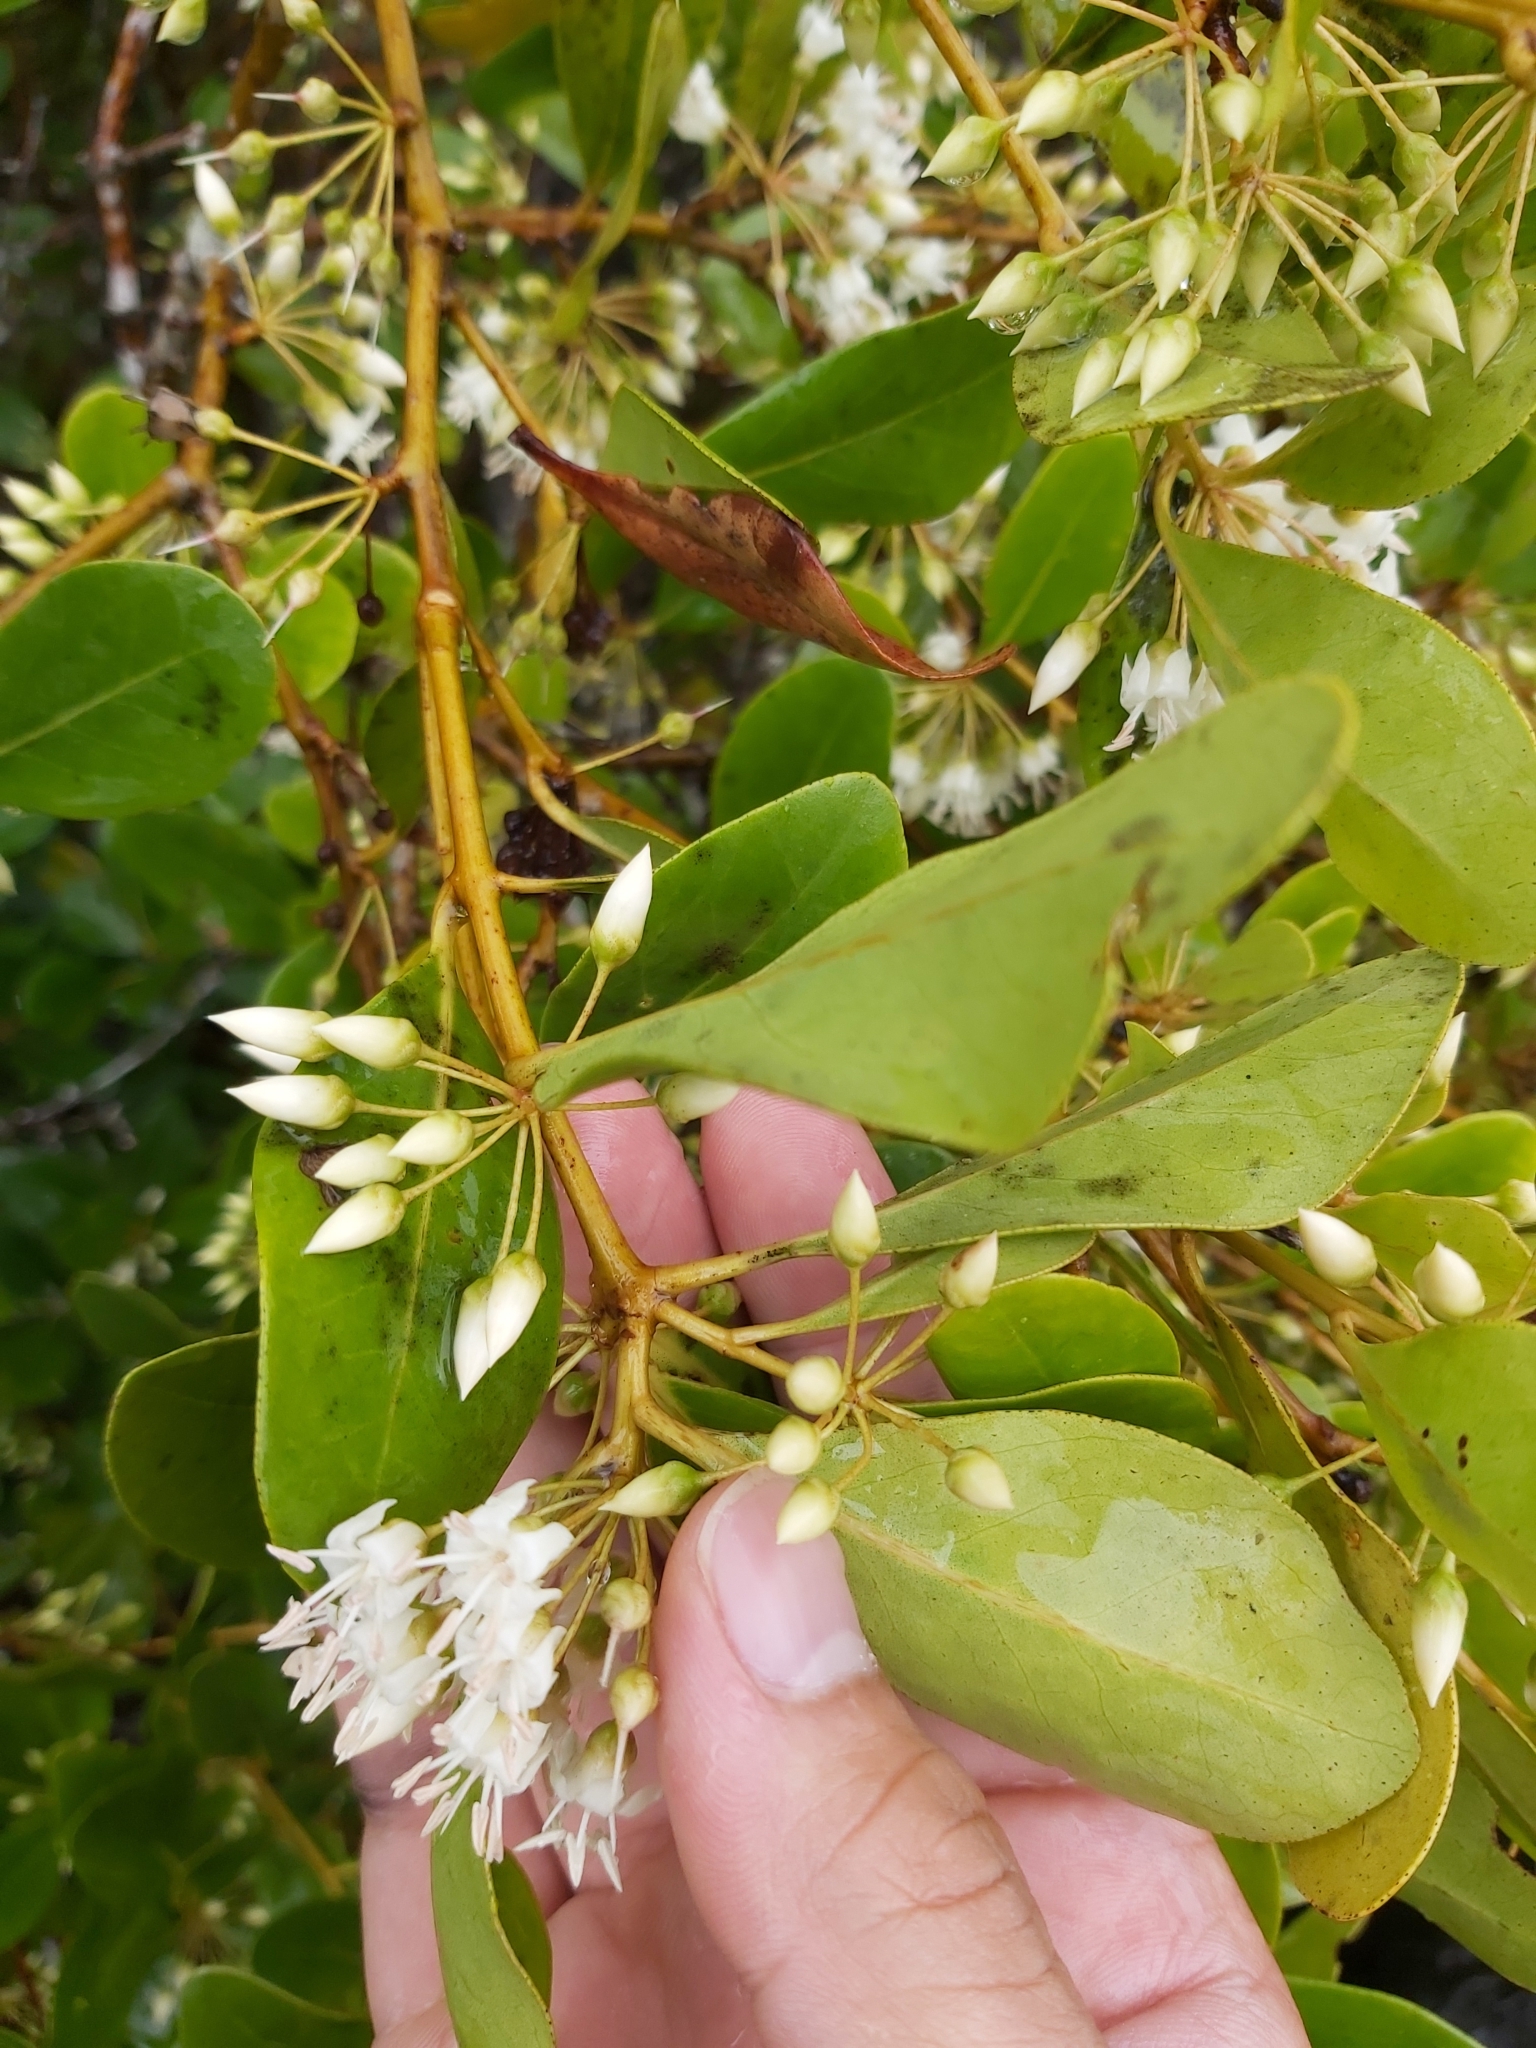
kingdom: Plantae
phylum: Tracheophyta
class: Magnoliopsida
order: Ericales
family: Primulaceae
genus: Aegiceras
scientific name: Aegiceras corniculatum
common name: River mangrove
